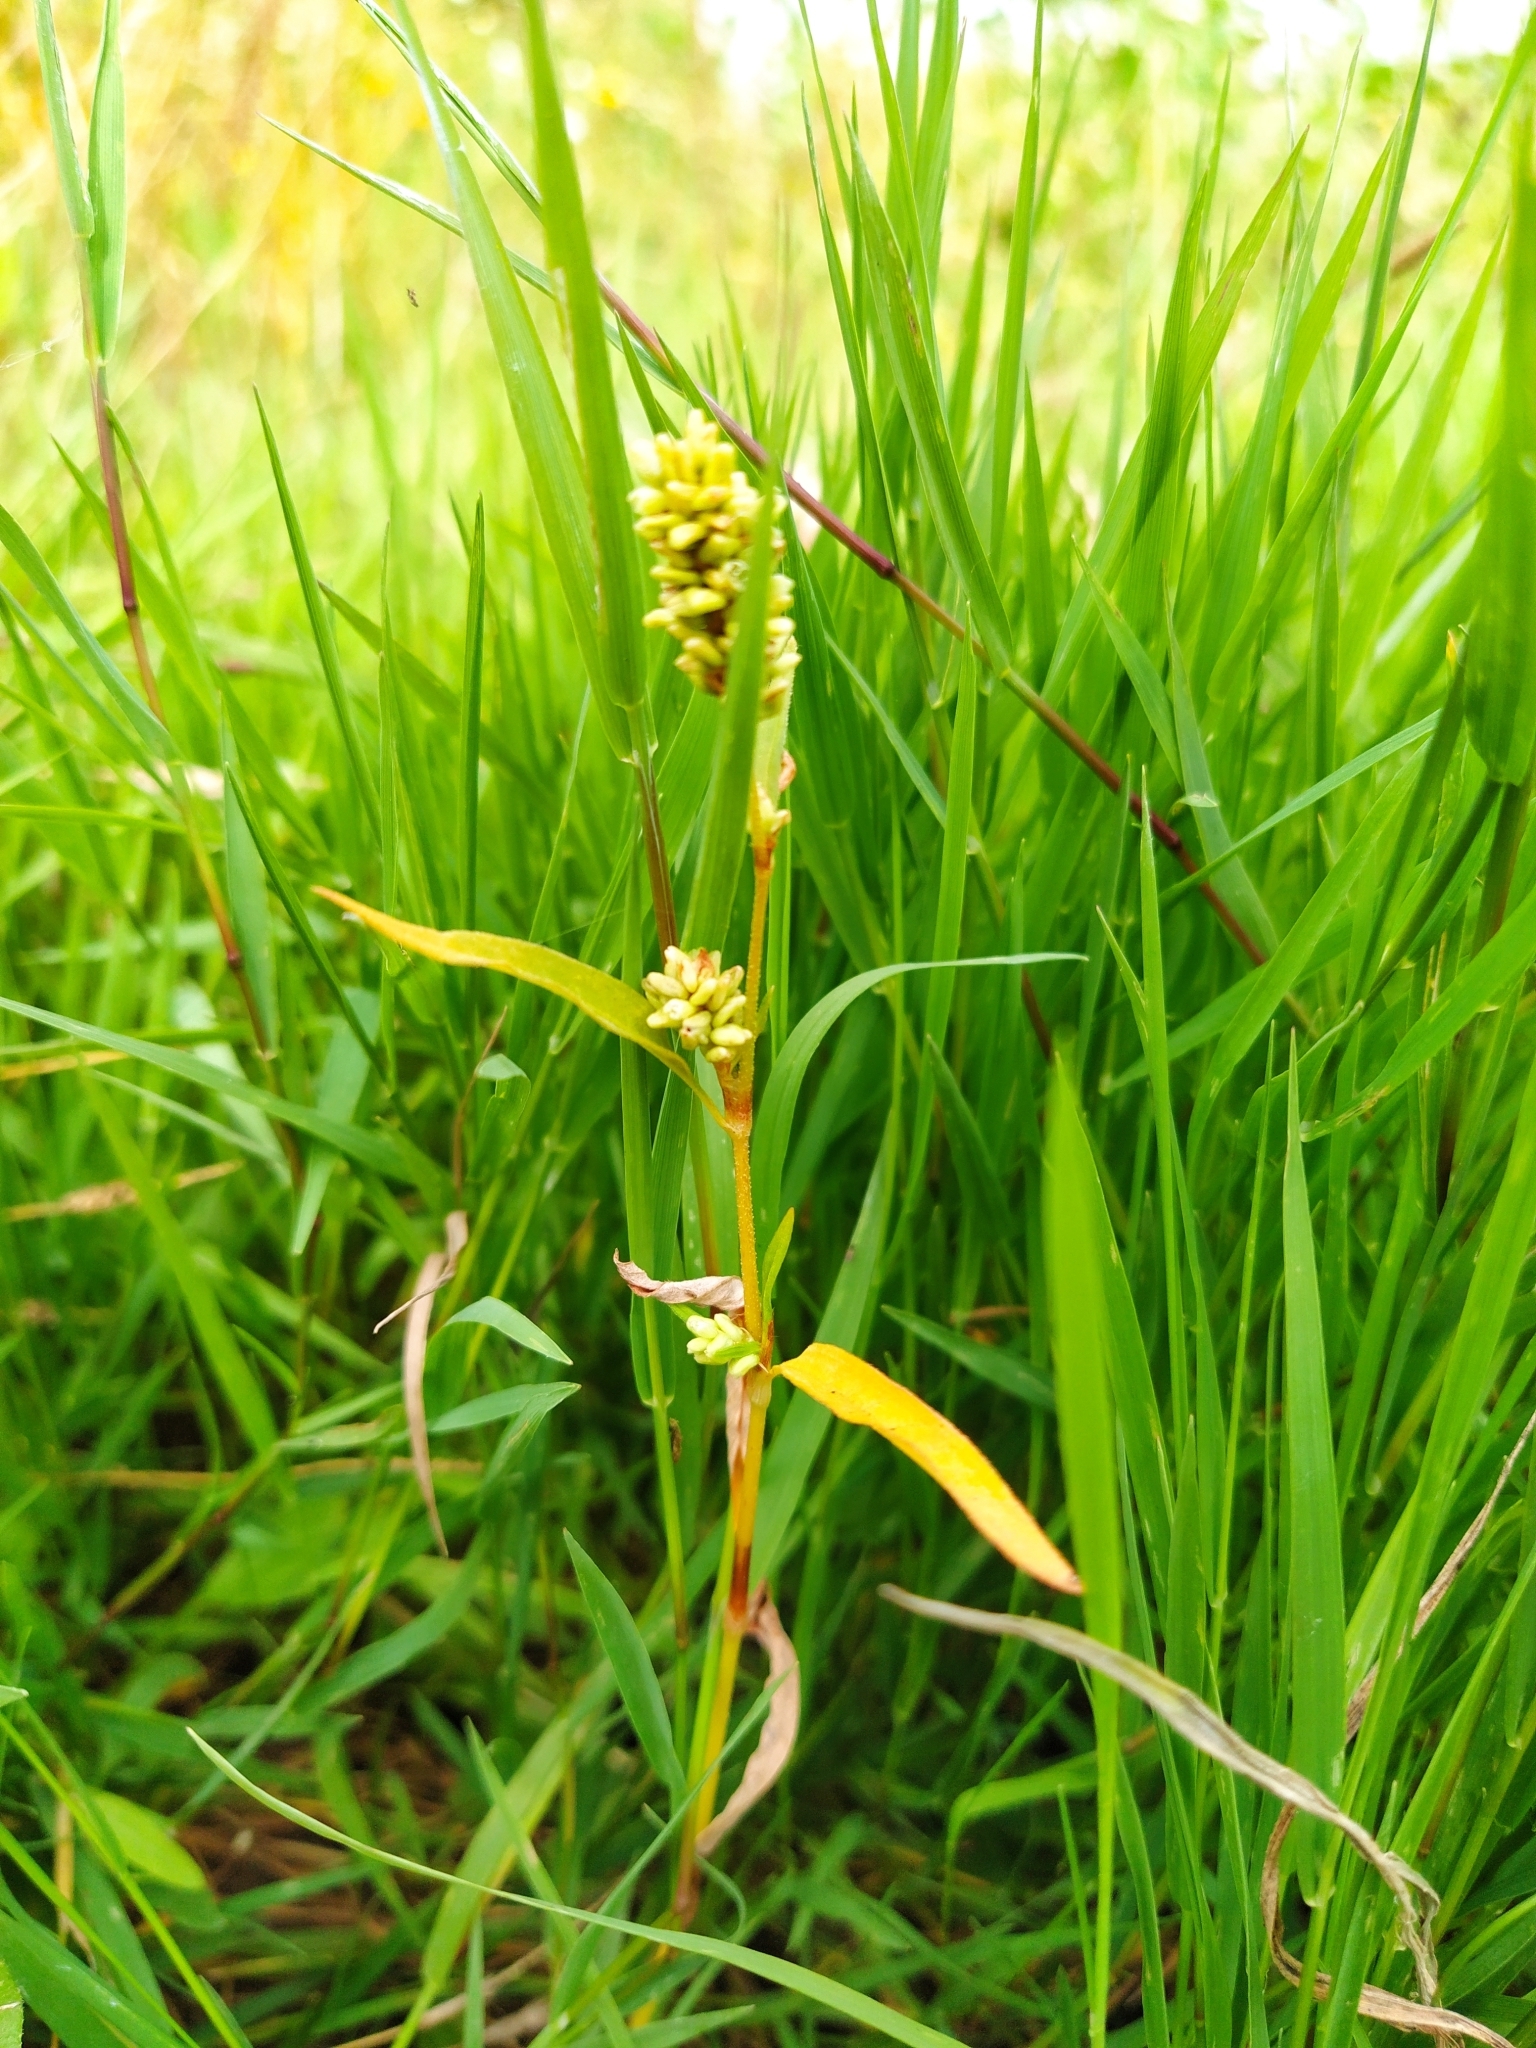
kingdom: Plantae
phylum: Tracheophyta
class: Magnoliopsida
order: Caryophyllales
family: Polygonaceae
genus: Persicaria
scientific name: Persicaria lapathifolia
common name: Curlytop knotweed
